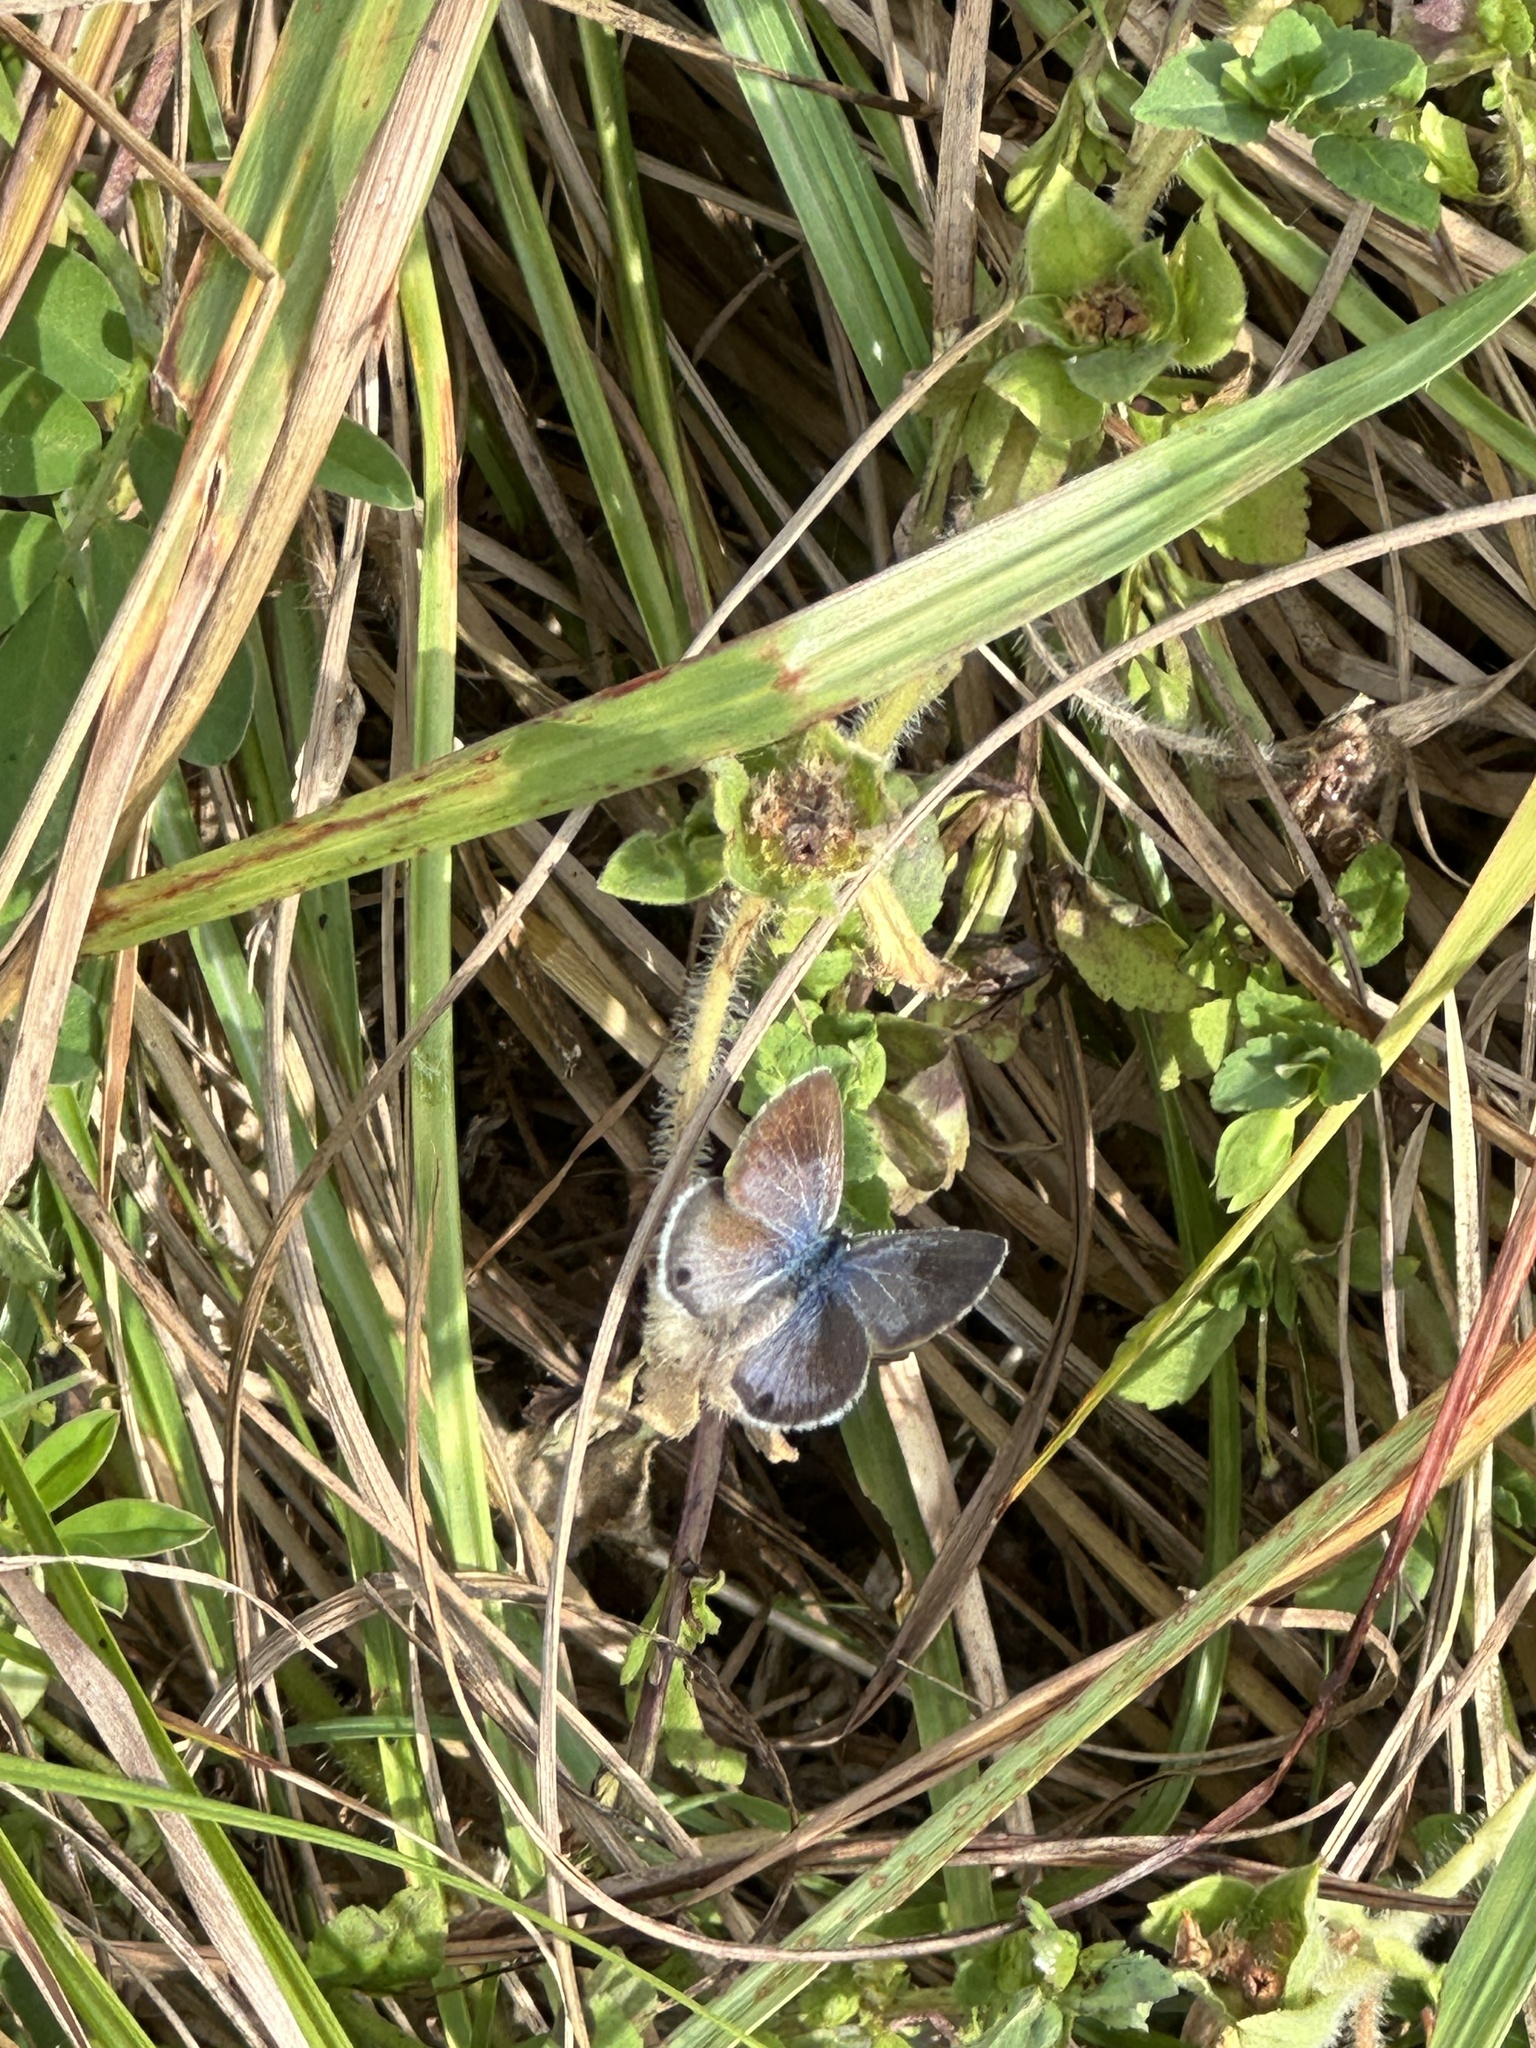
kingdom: Animalia
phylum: Arthropoda
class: Insecta
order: Lepidoptera
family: Lycaenidae
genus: Hemiargus
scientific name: Hemiargus ceraunus
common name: Ceraunus blue
